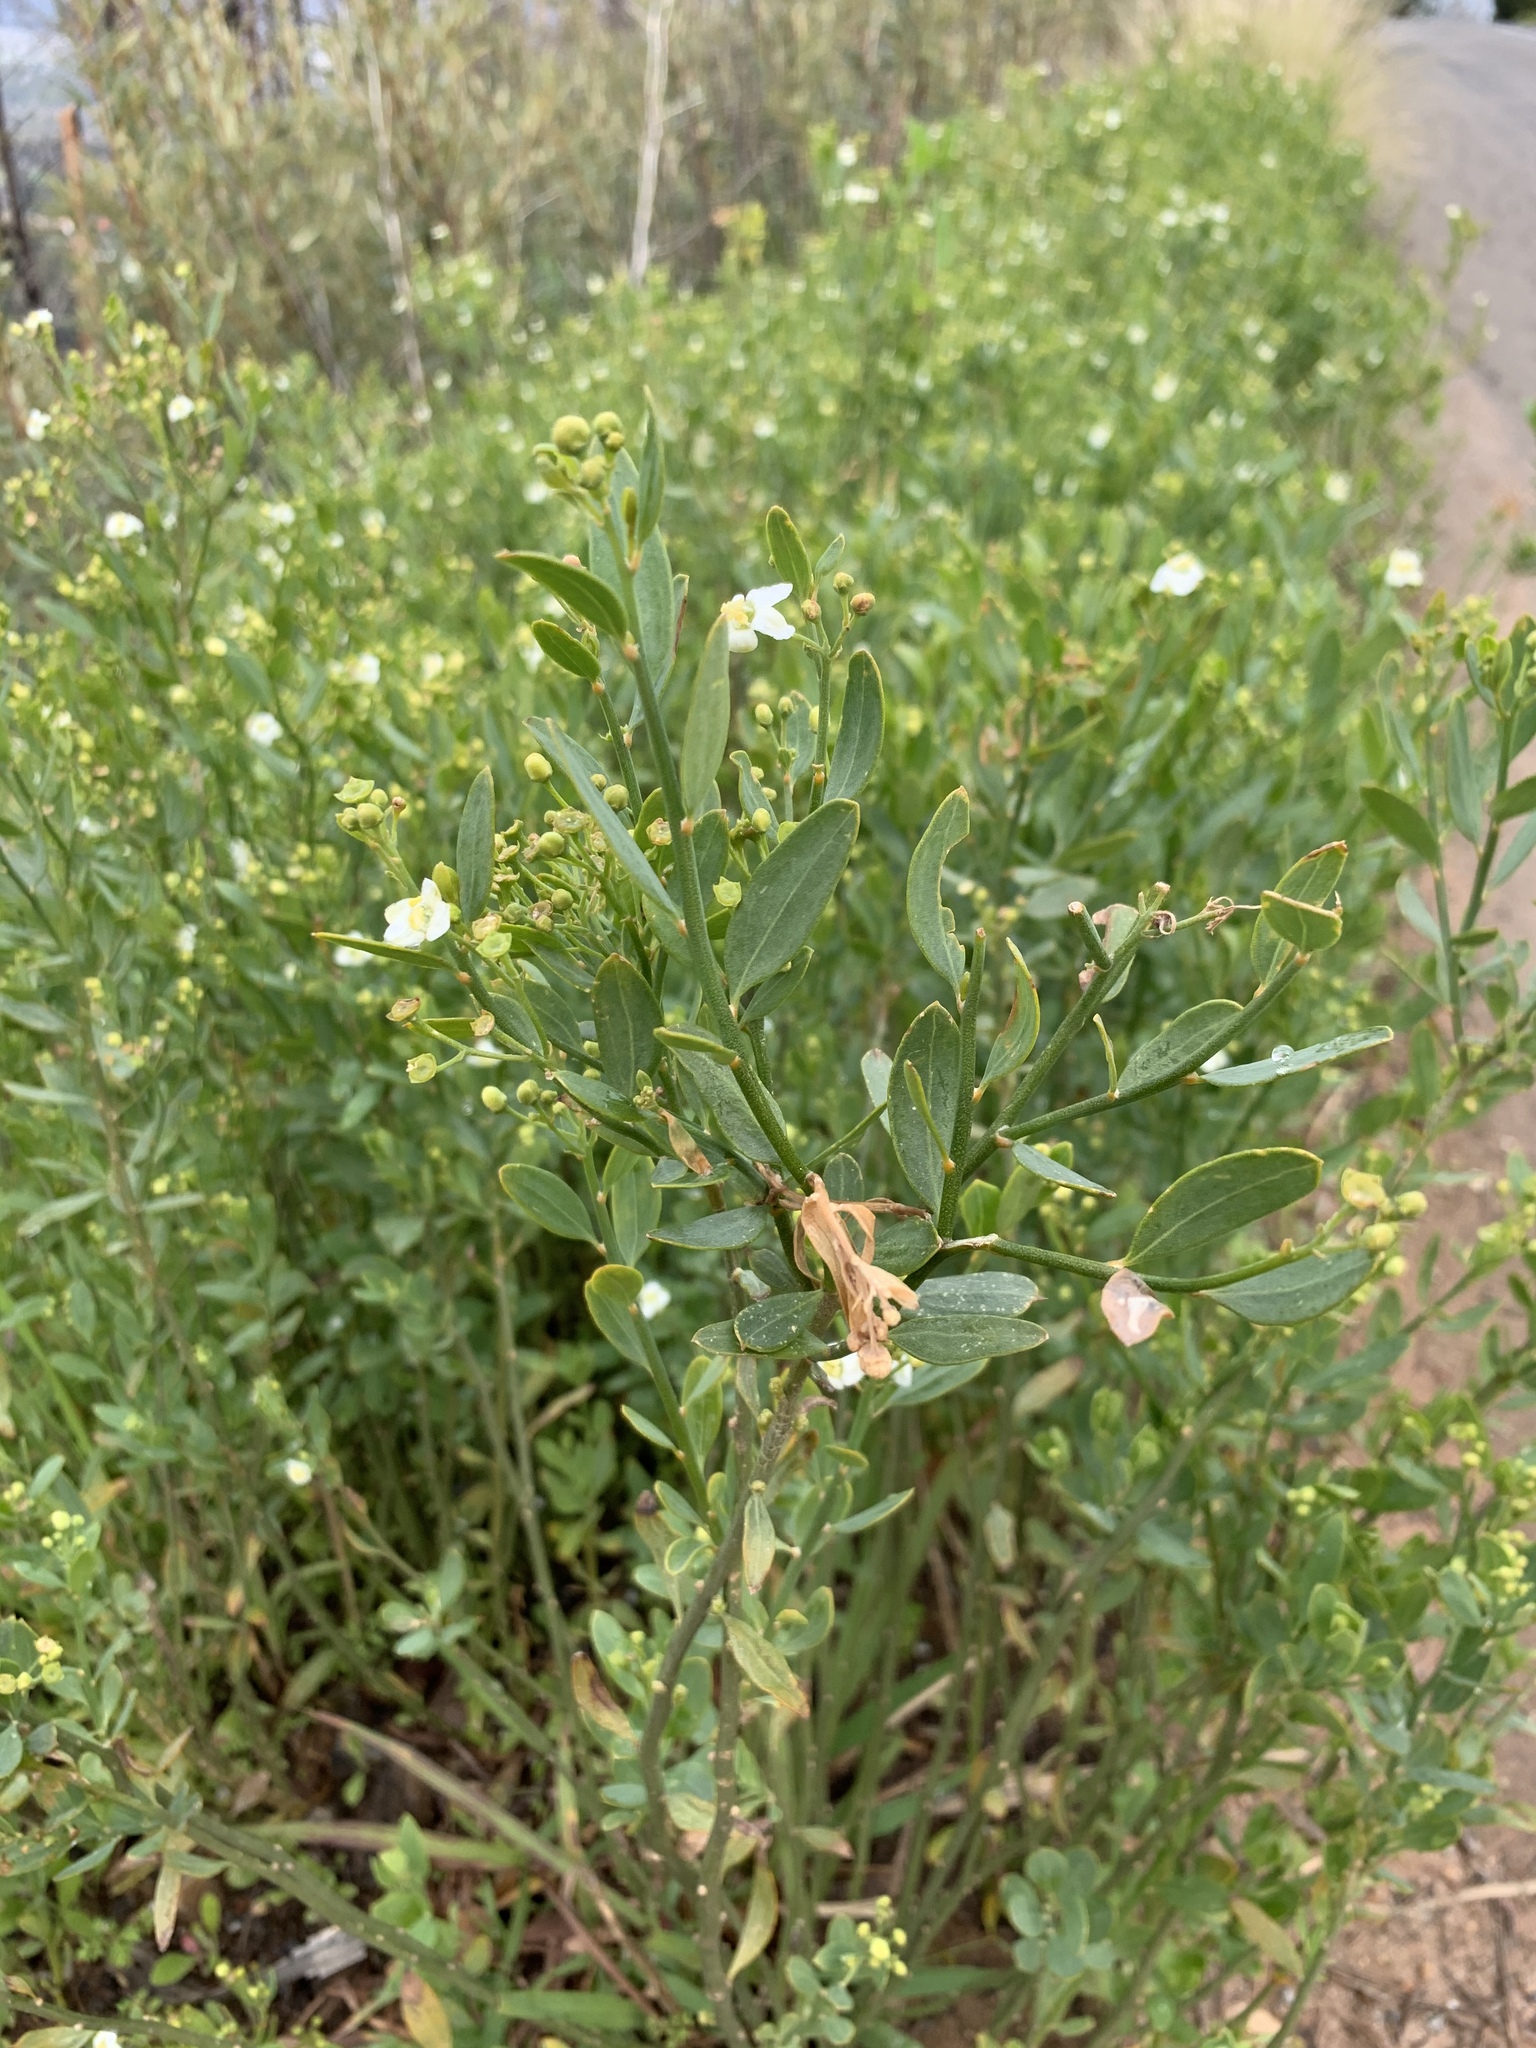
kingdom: Plantae
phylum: Tracheophyta
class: Magnoliopsida
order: Solanales
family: Montiniaceae
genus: Montinia
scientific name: Montinia caryophyllacea
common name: Wild clove-bush
